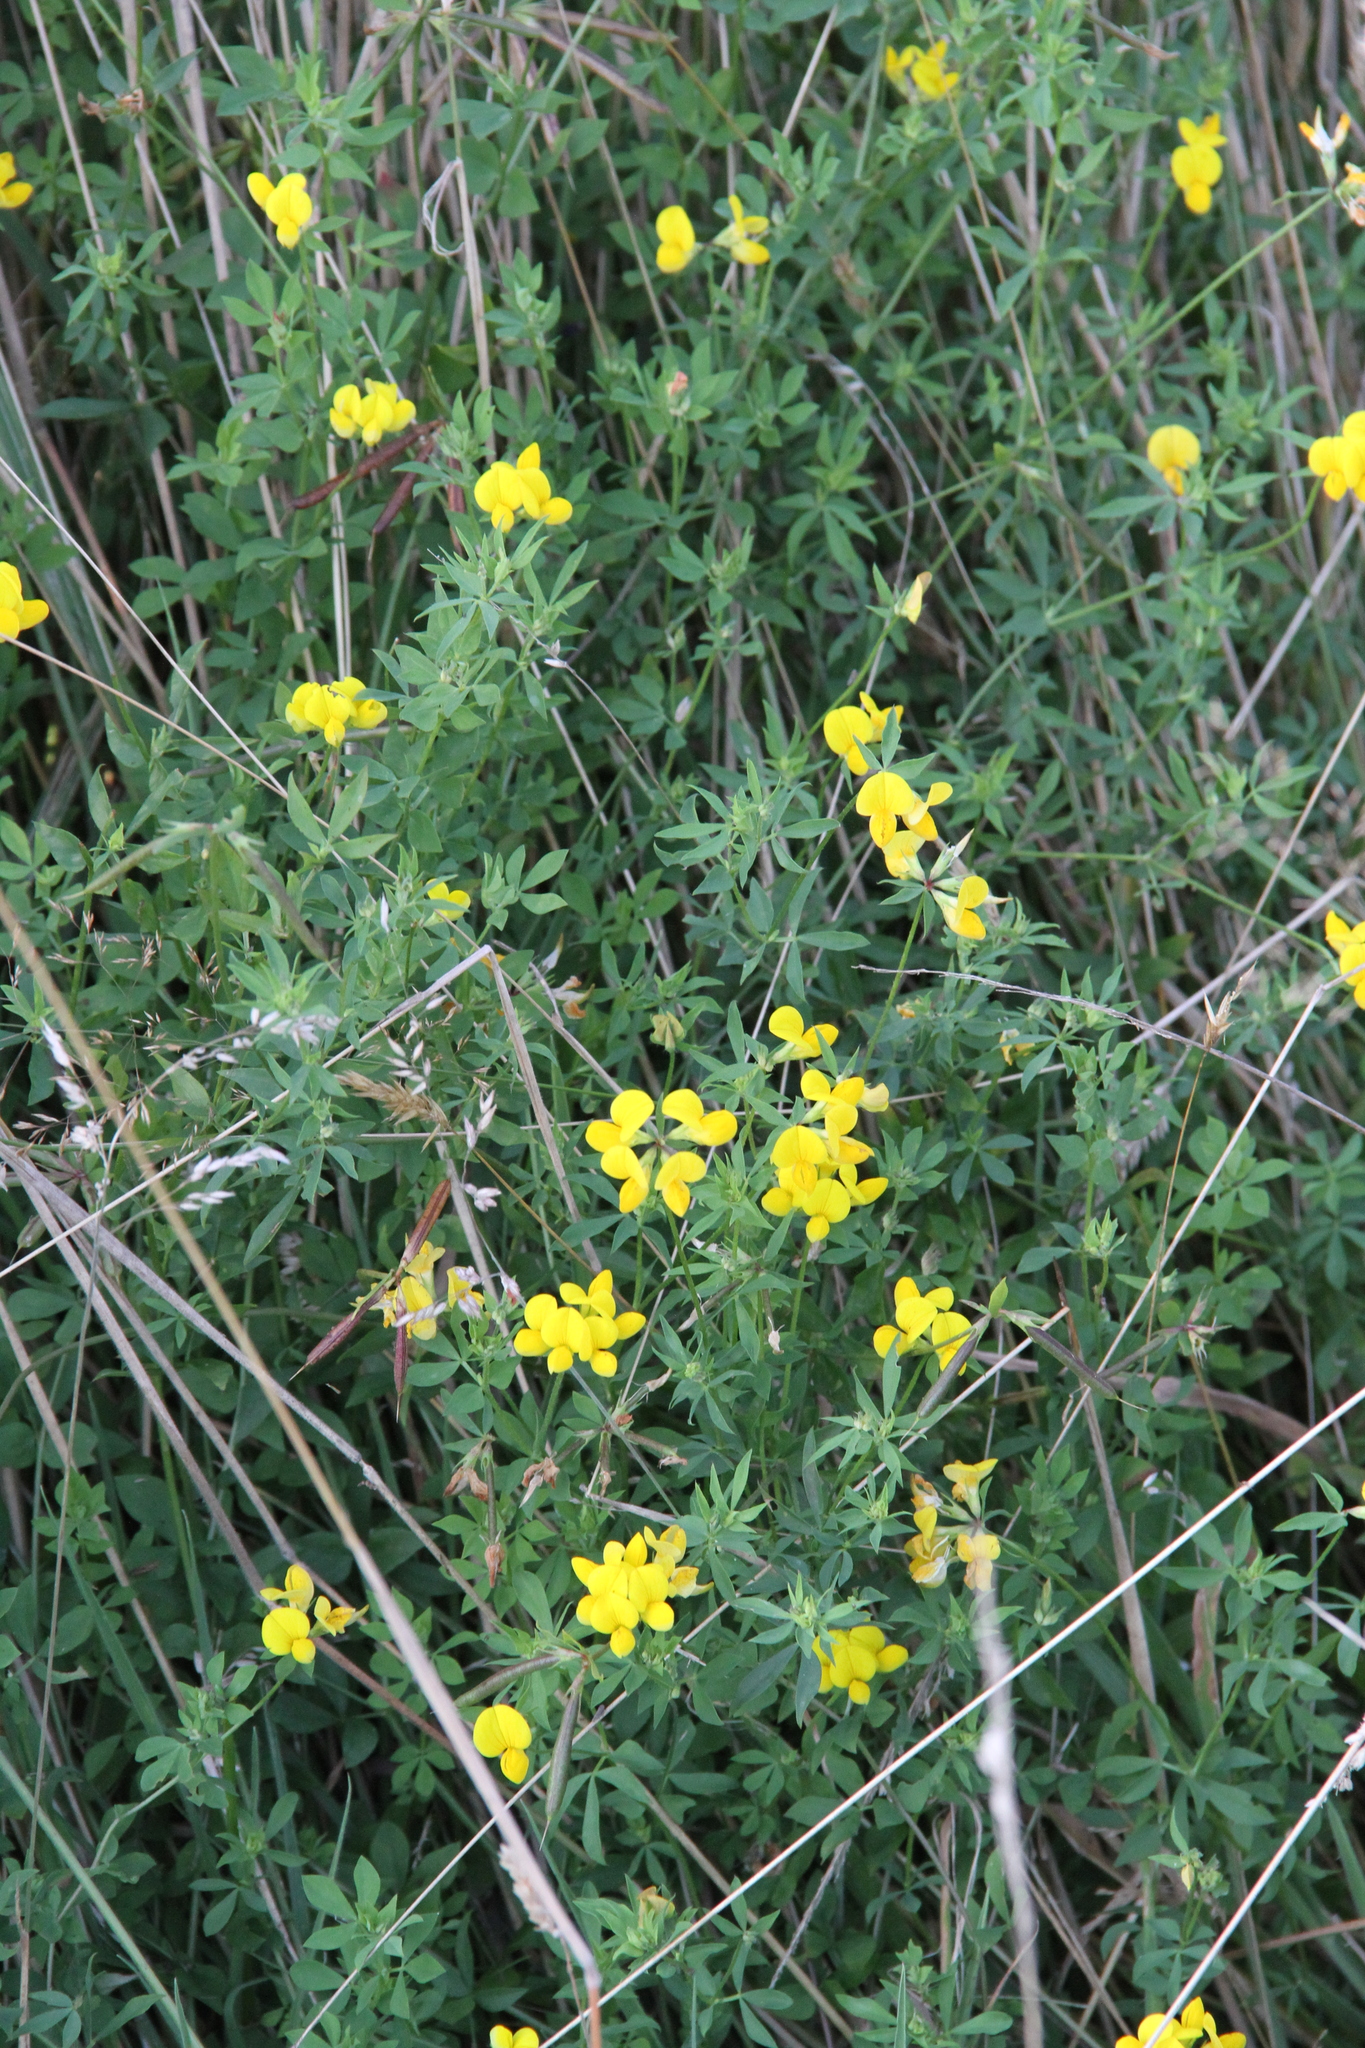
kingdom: Plantae
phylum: Tracheophyta
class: Magnoliopsida
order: Fabales
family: Fabaceae
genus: Lotus
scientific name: Lotus corniculatus
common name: Common bird's-foot-trefoil
